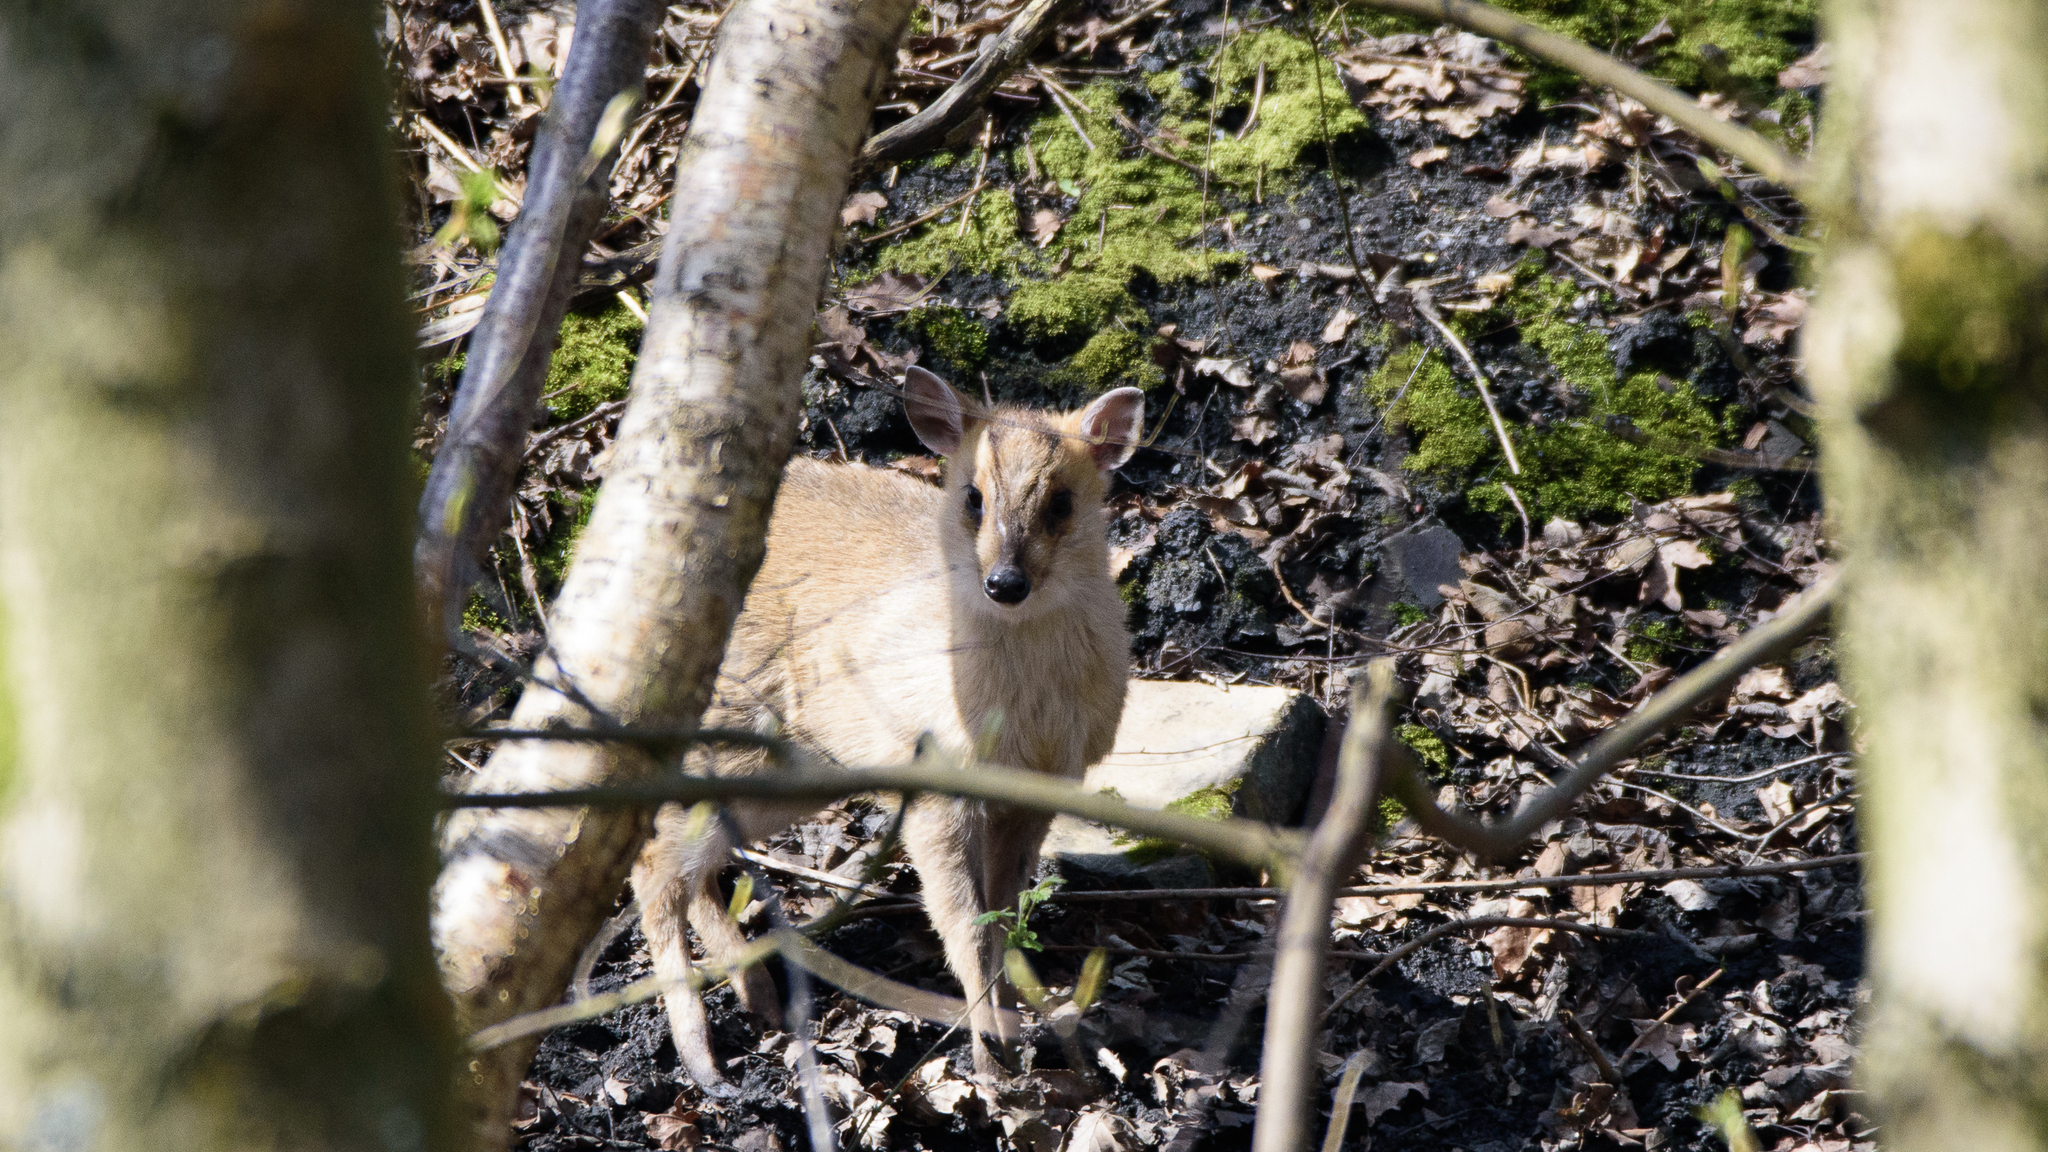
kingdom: Animalia
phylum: Chordata
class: Mammalia
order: Artiodactyla
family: Cervidae
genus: Muntiacus
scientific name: Muntiacus reevesi
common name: Reeves' muntjac
